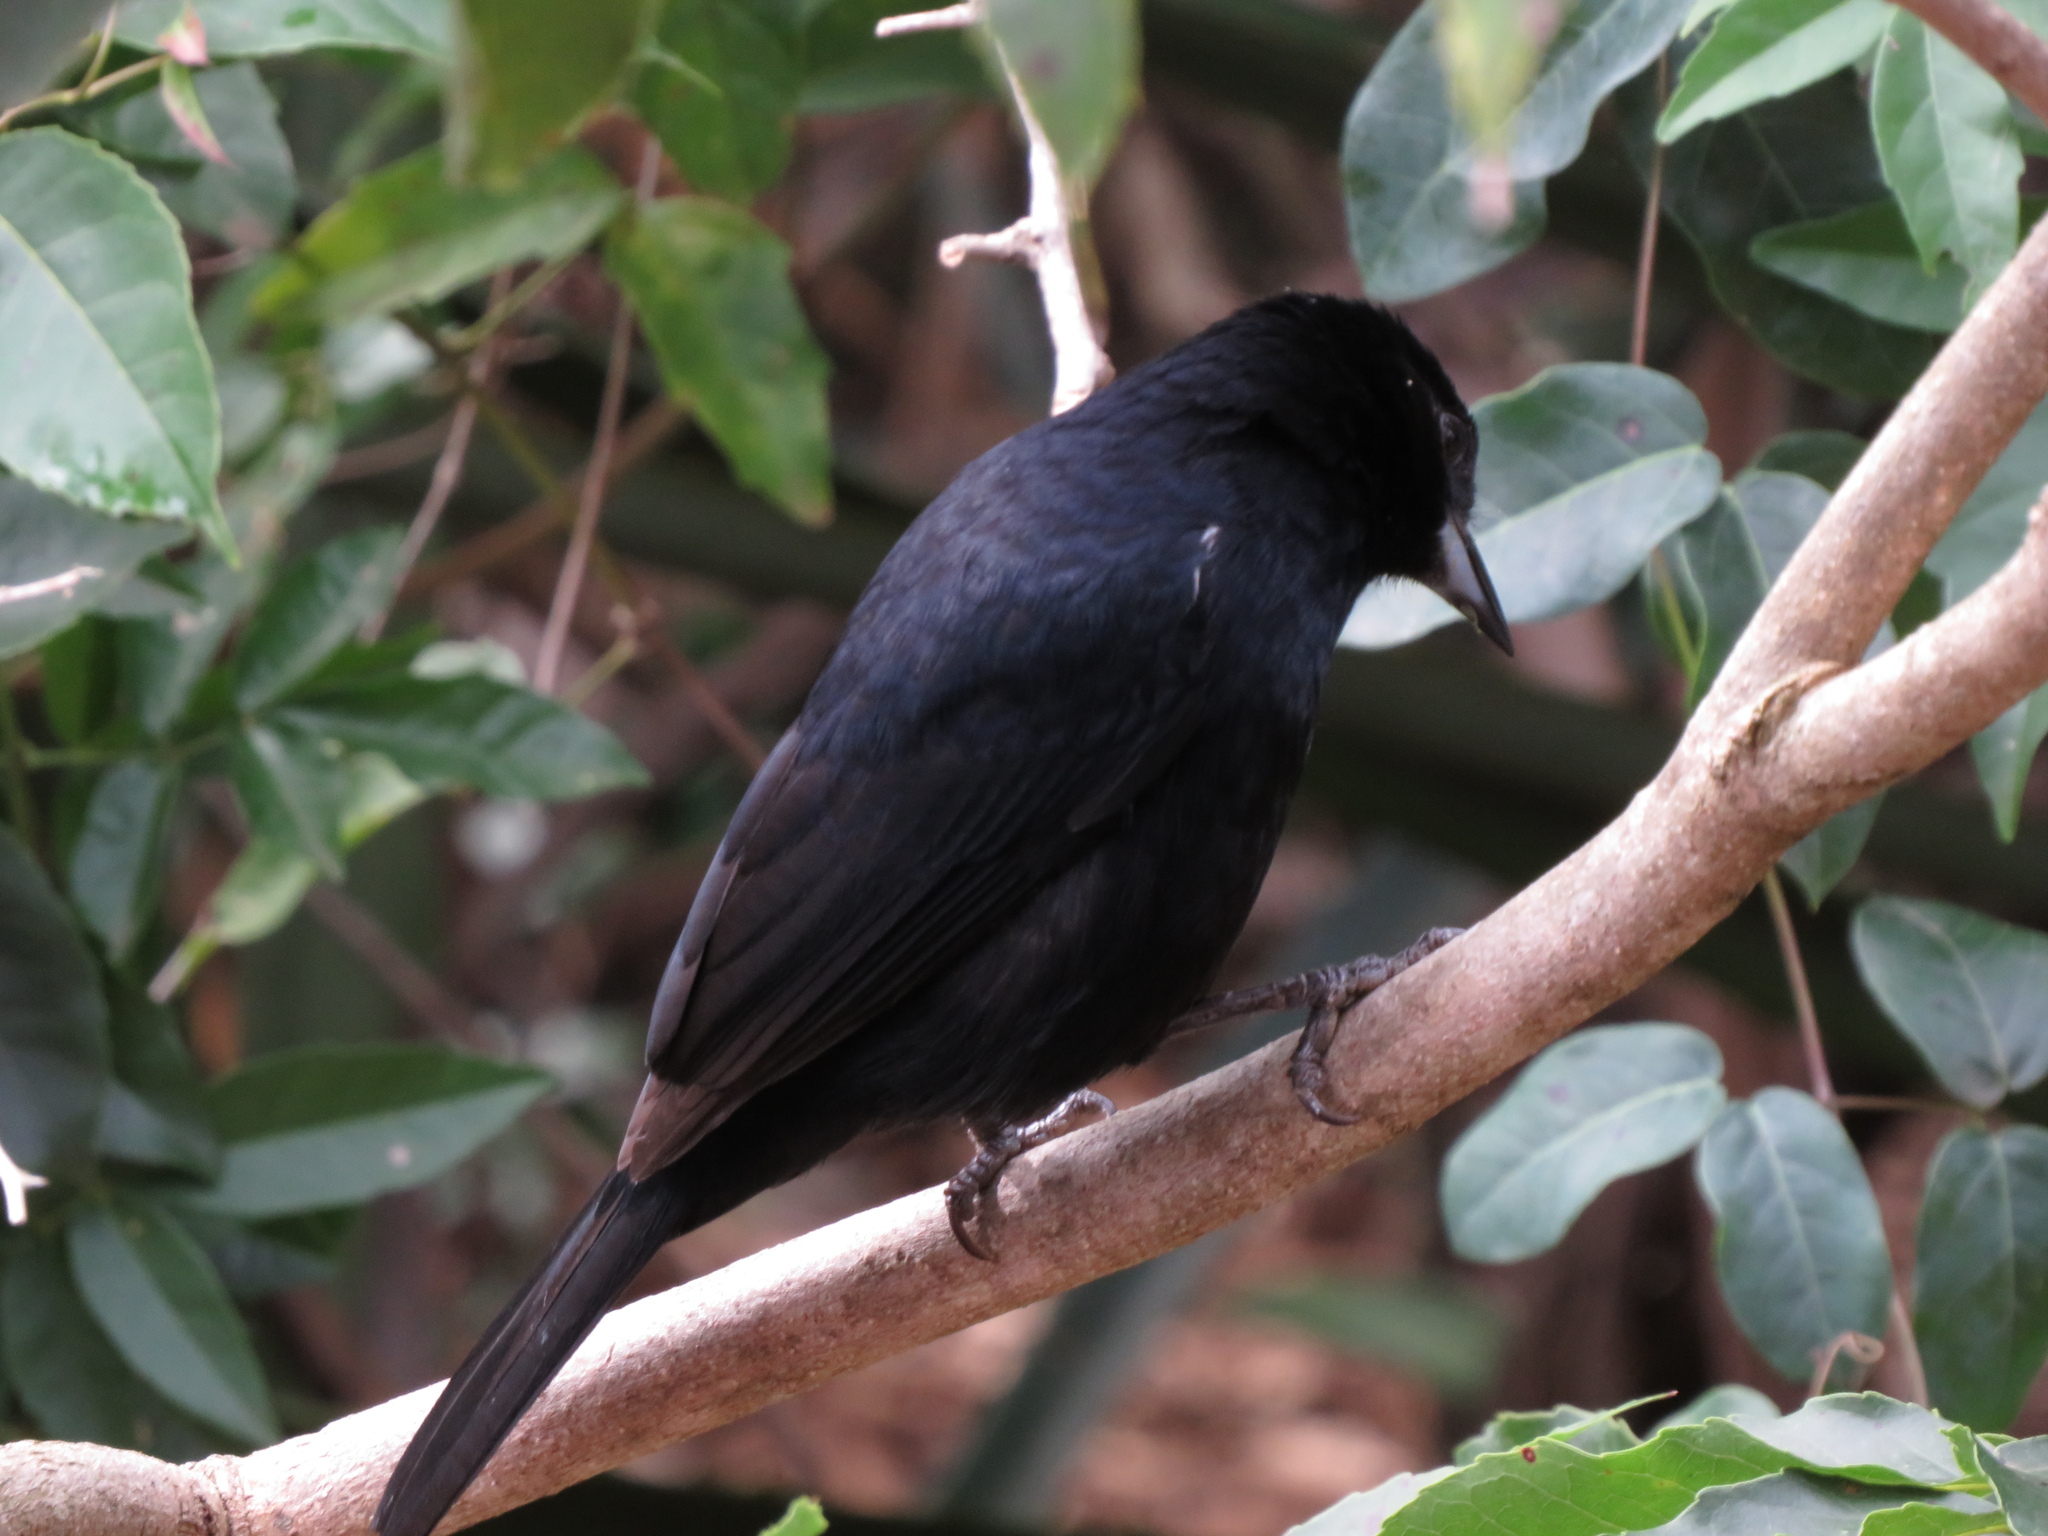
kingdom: Animalia
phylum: Chordata
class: Aves
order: Passeriformes
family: Thraupidae
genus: Tachyphonus
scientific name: Tachyphonus rufus
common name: White-lined tanager
